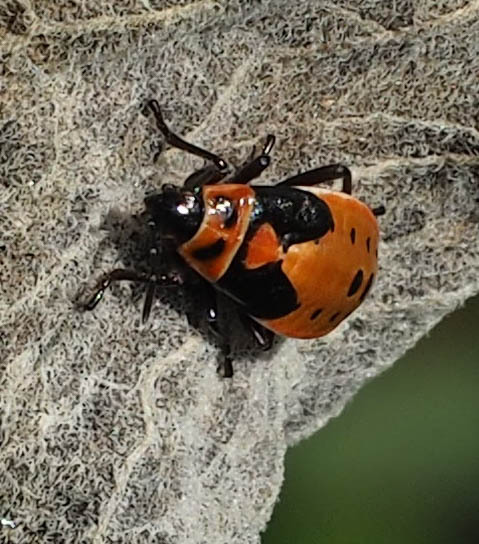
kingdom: Animalia
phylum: Arthropoda
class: Insecta
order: Hemiptera
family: Lygaeidae
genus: Lygaeus
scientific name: Lygaeus kalmii
